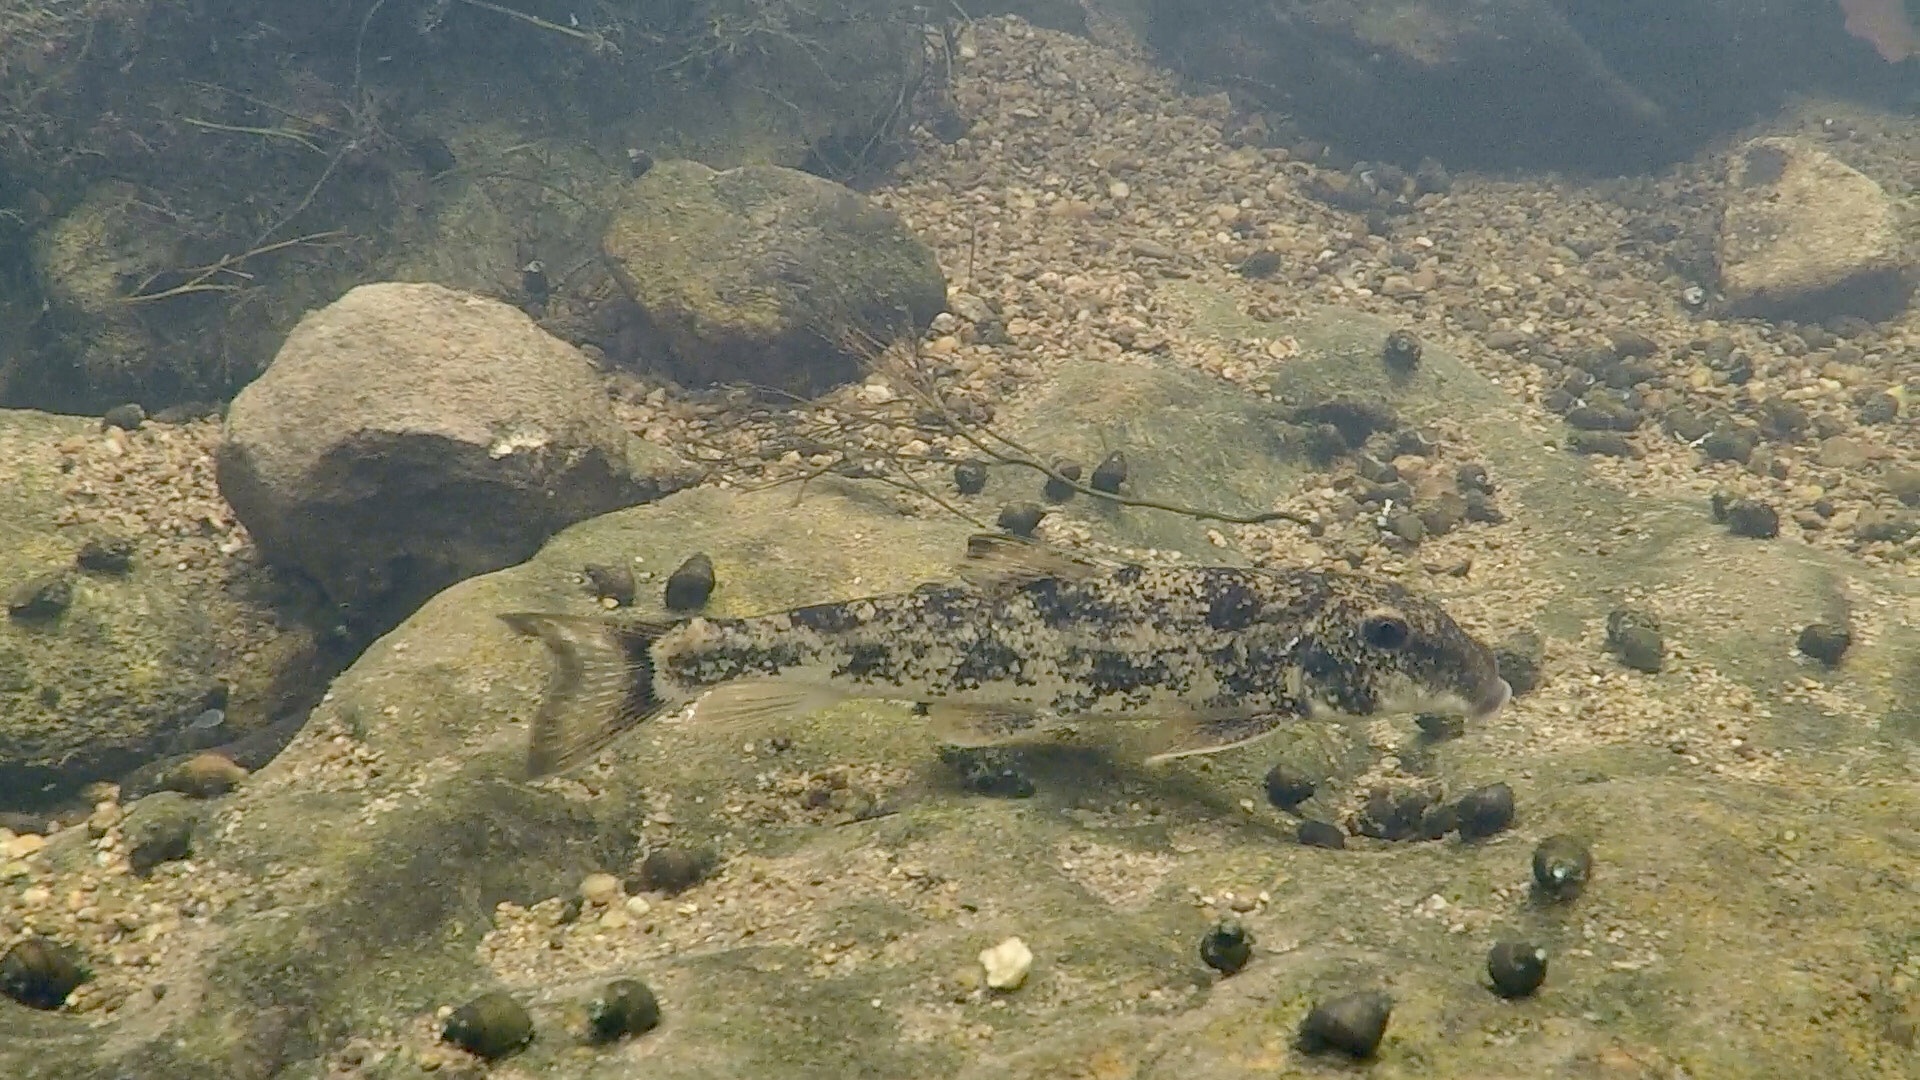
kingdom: Animalia
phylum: Chordata
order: Cypriniformes
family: Catostomidae
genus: Hypentelium
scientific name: Hypentelium nigricans
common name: Northern hog sucker
